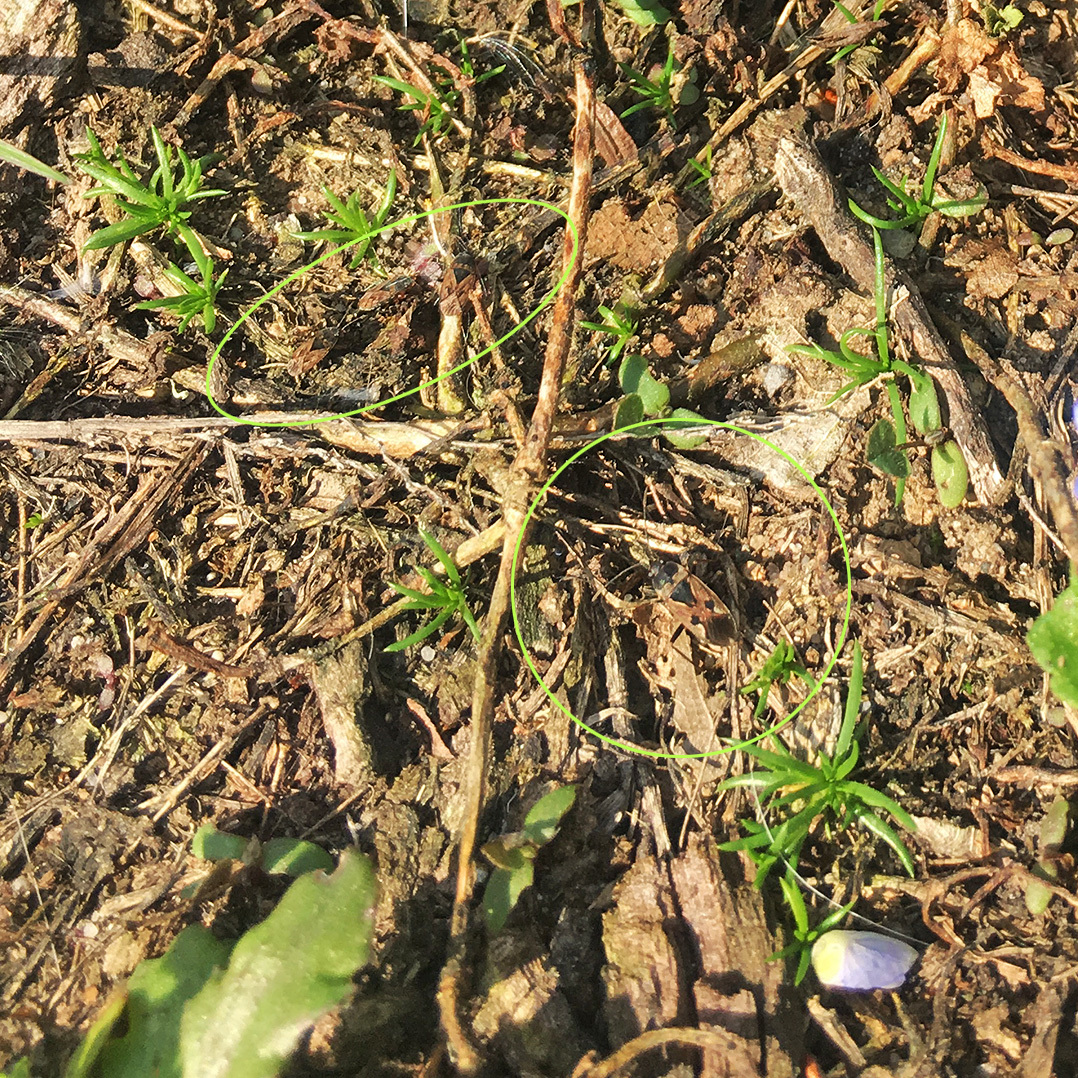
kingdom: Animalia
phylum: Arthropoda
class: Insecta
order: Hemiptera
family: Rhyparochromidae
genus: Rhyparochromus
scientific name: Rhyparochromus vulgaris
